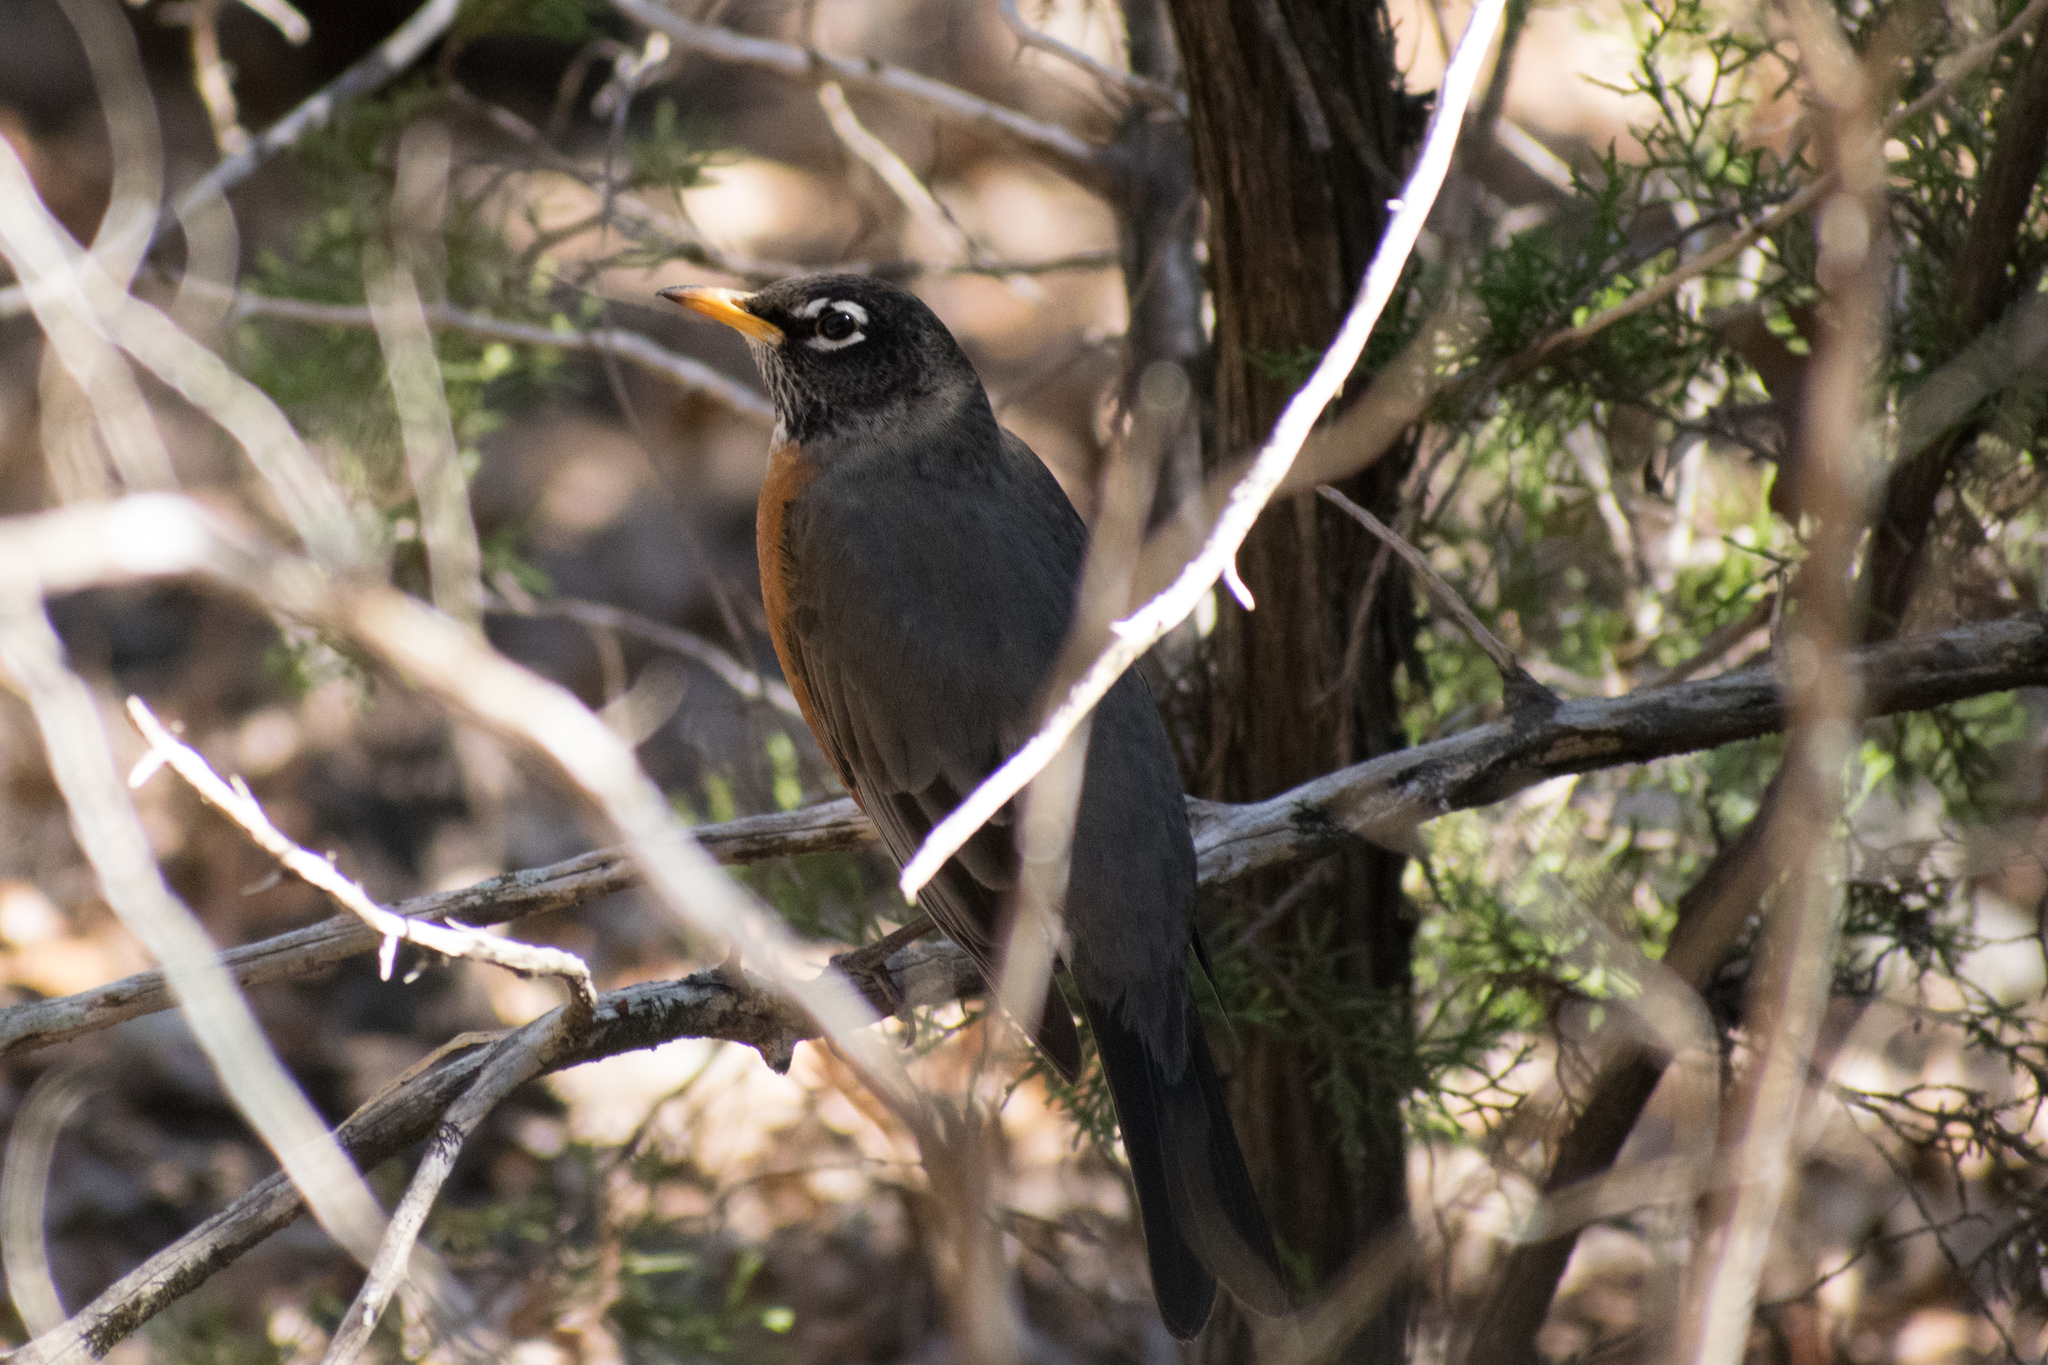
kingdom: Animalia
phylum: Chordata
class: Aves
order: Passeriformes
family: Turdidae
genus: Turdus
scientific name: Turdus migratorius
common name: American robin
